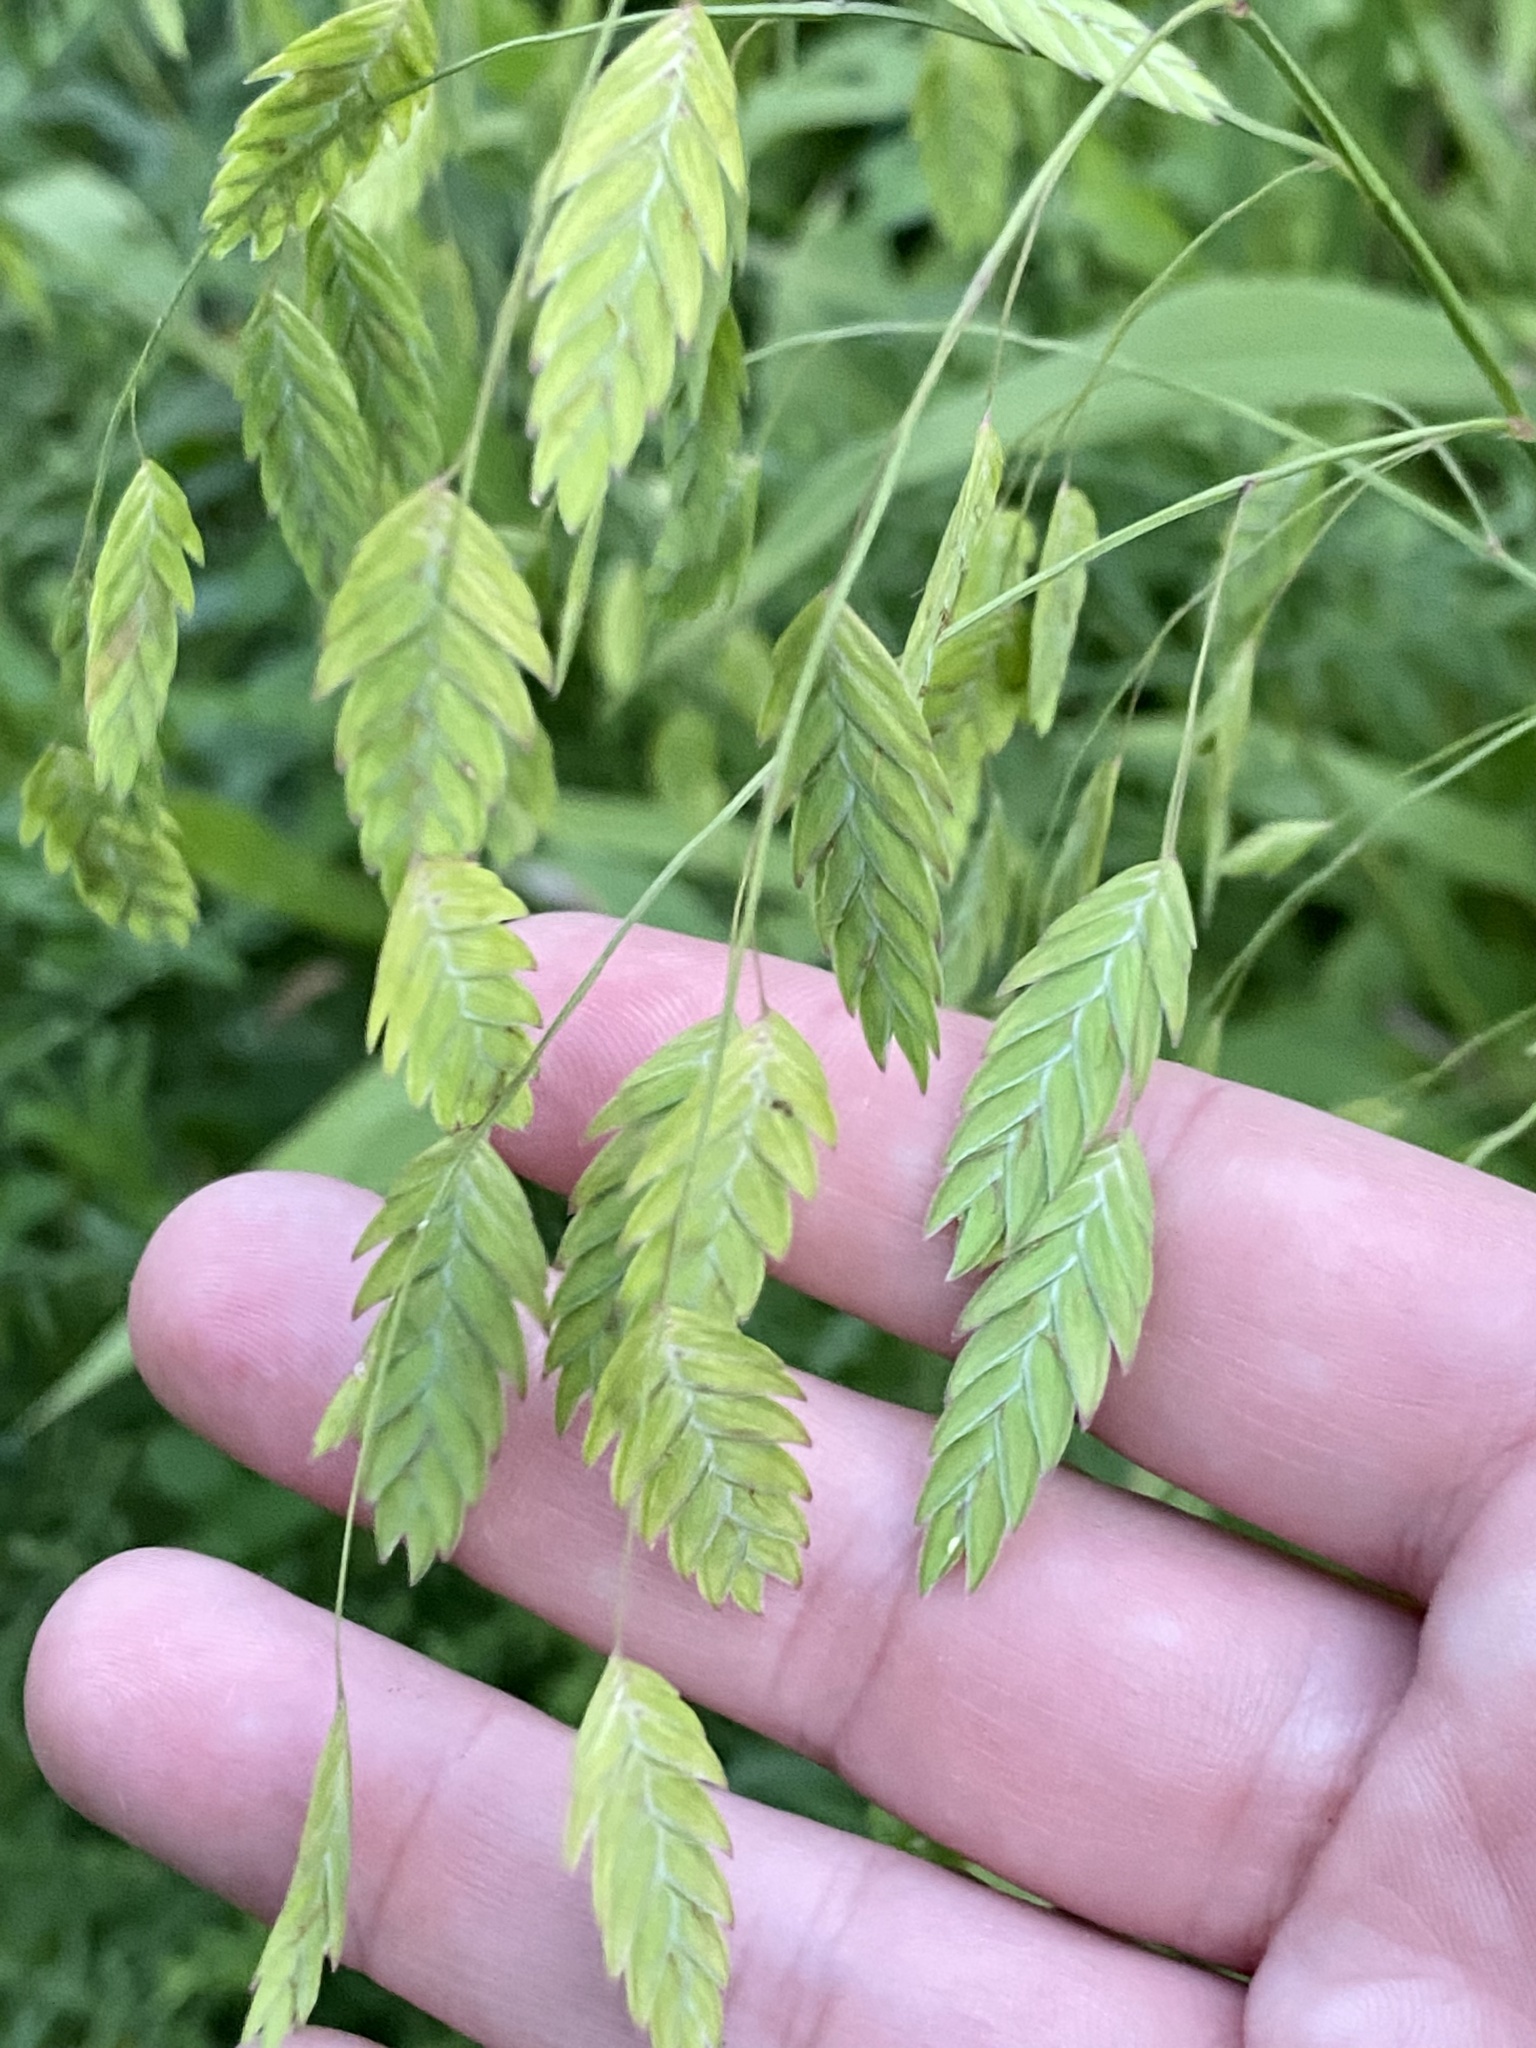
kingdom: Plantae
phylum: Tracheophyta
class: Liliopsida
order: Poales
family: Poaceae
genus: Chasmanthium
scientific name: Chasmanthium latifolium
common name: Broad-leaved chasmanthium
